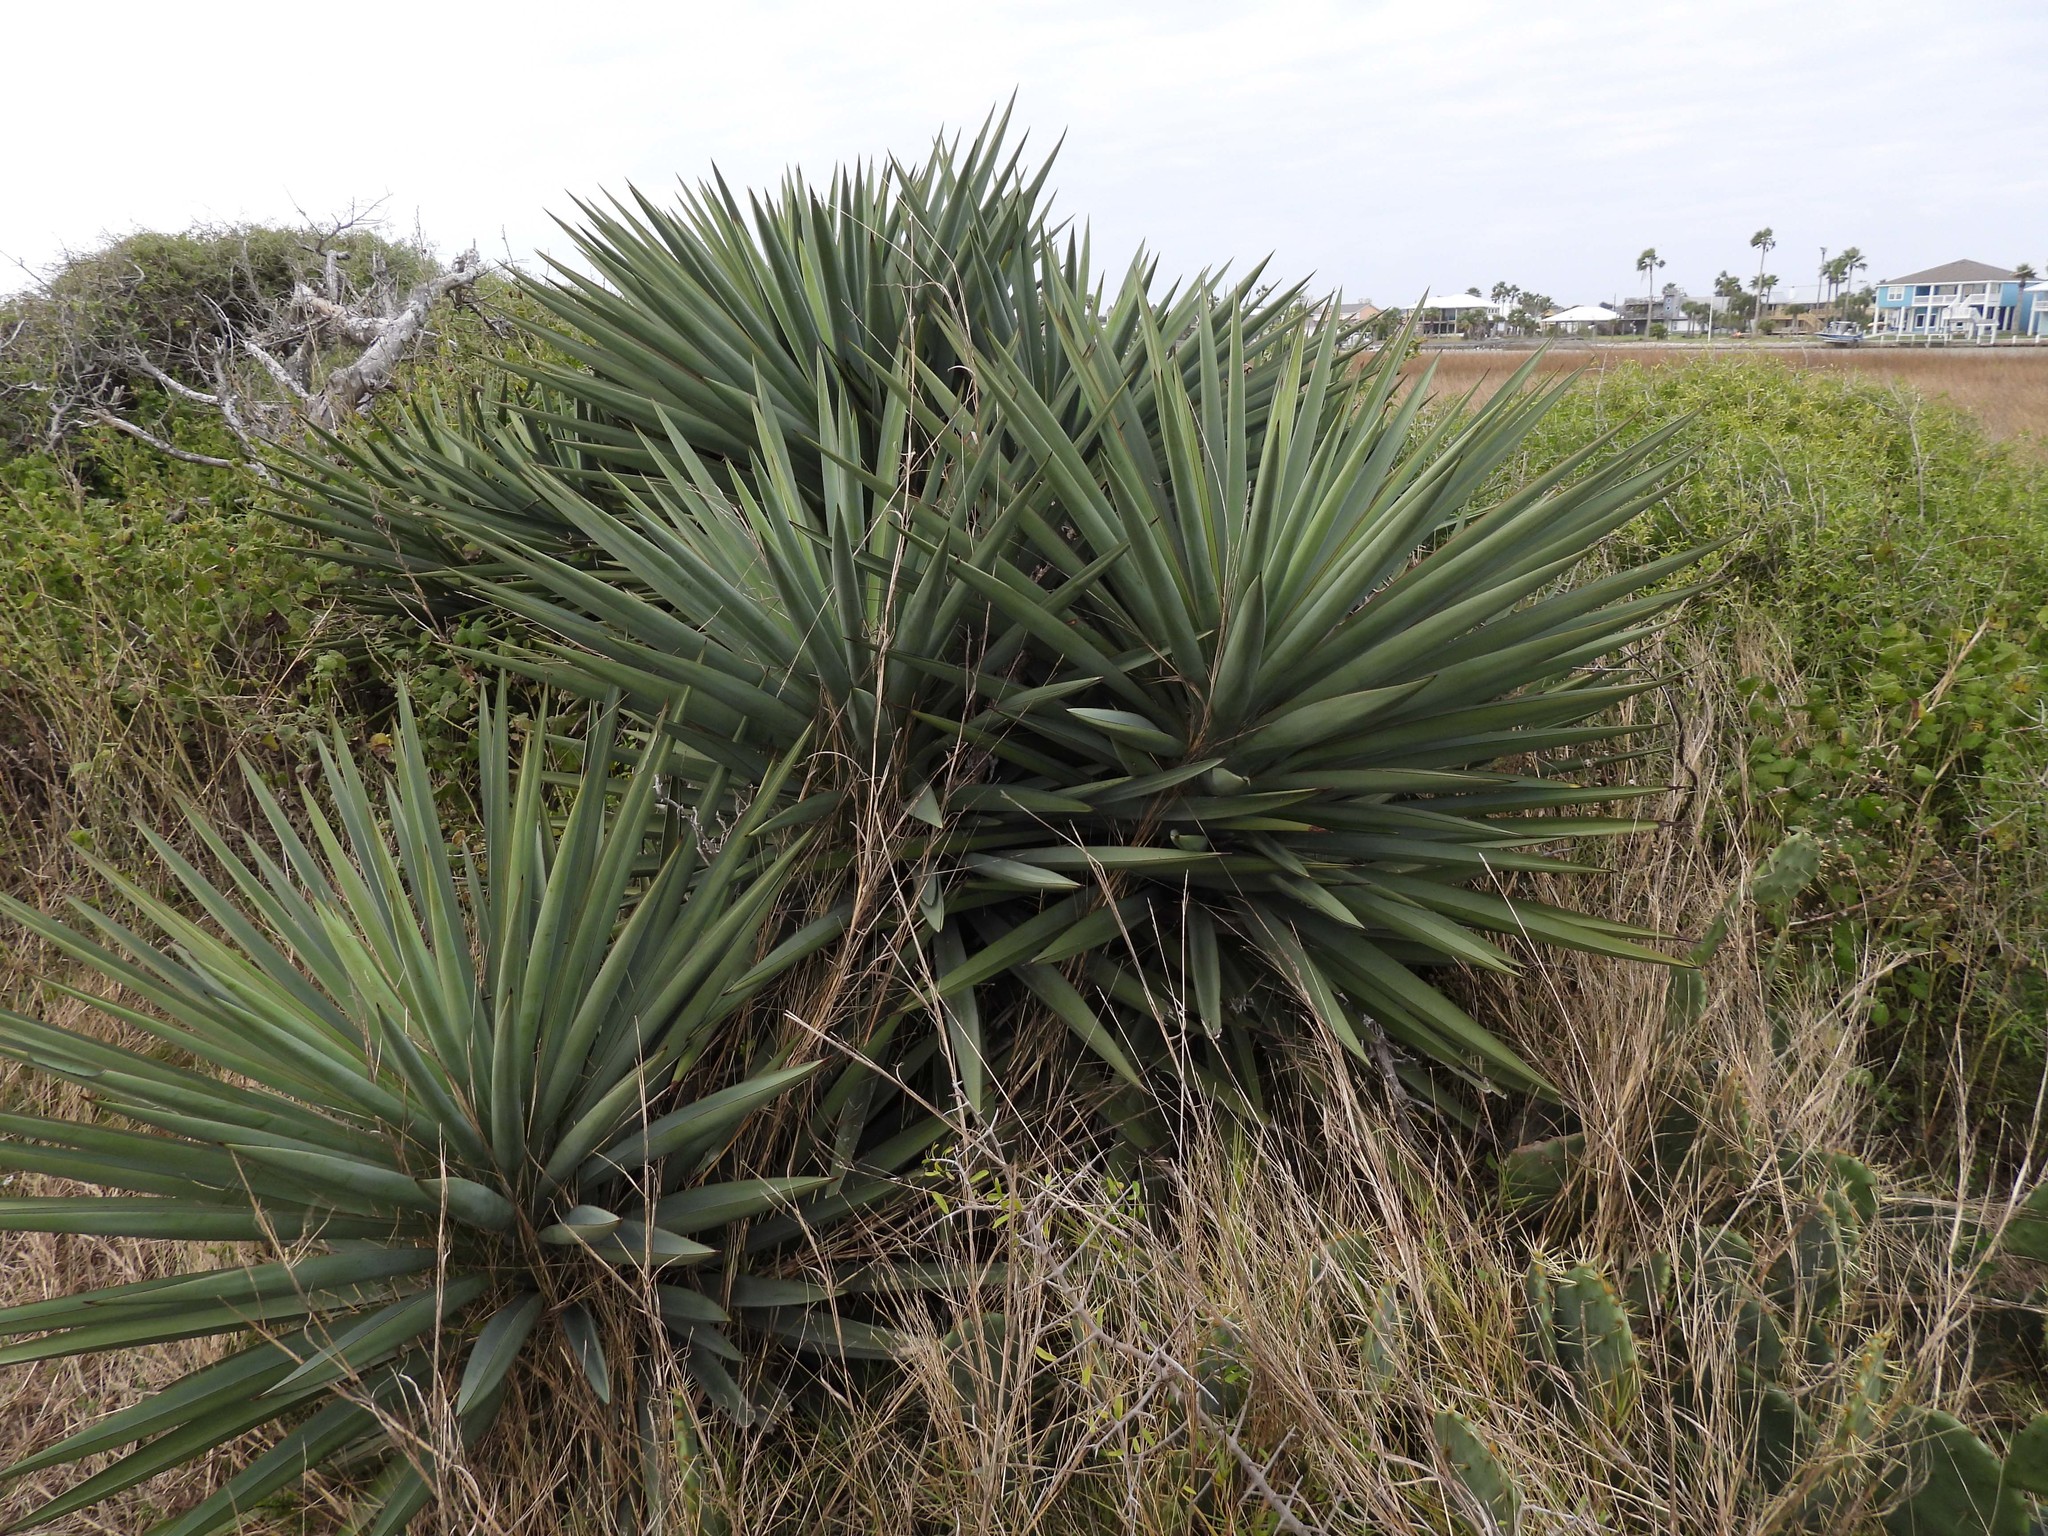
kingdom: Plantae
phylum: Tracheophyta
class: Liliopsida
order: Asparagales
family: Asparagaceae
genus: Yucca
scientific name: Yucca treculiana
